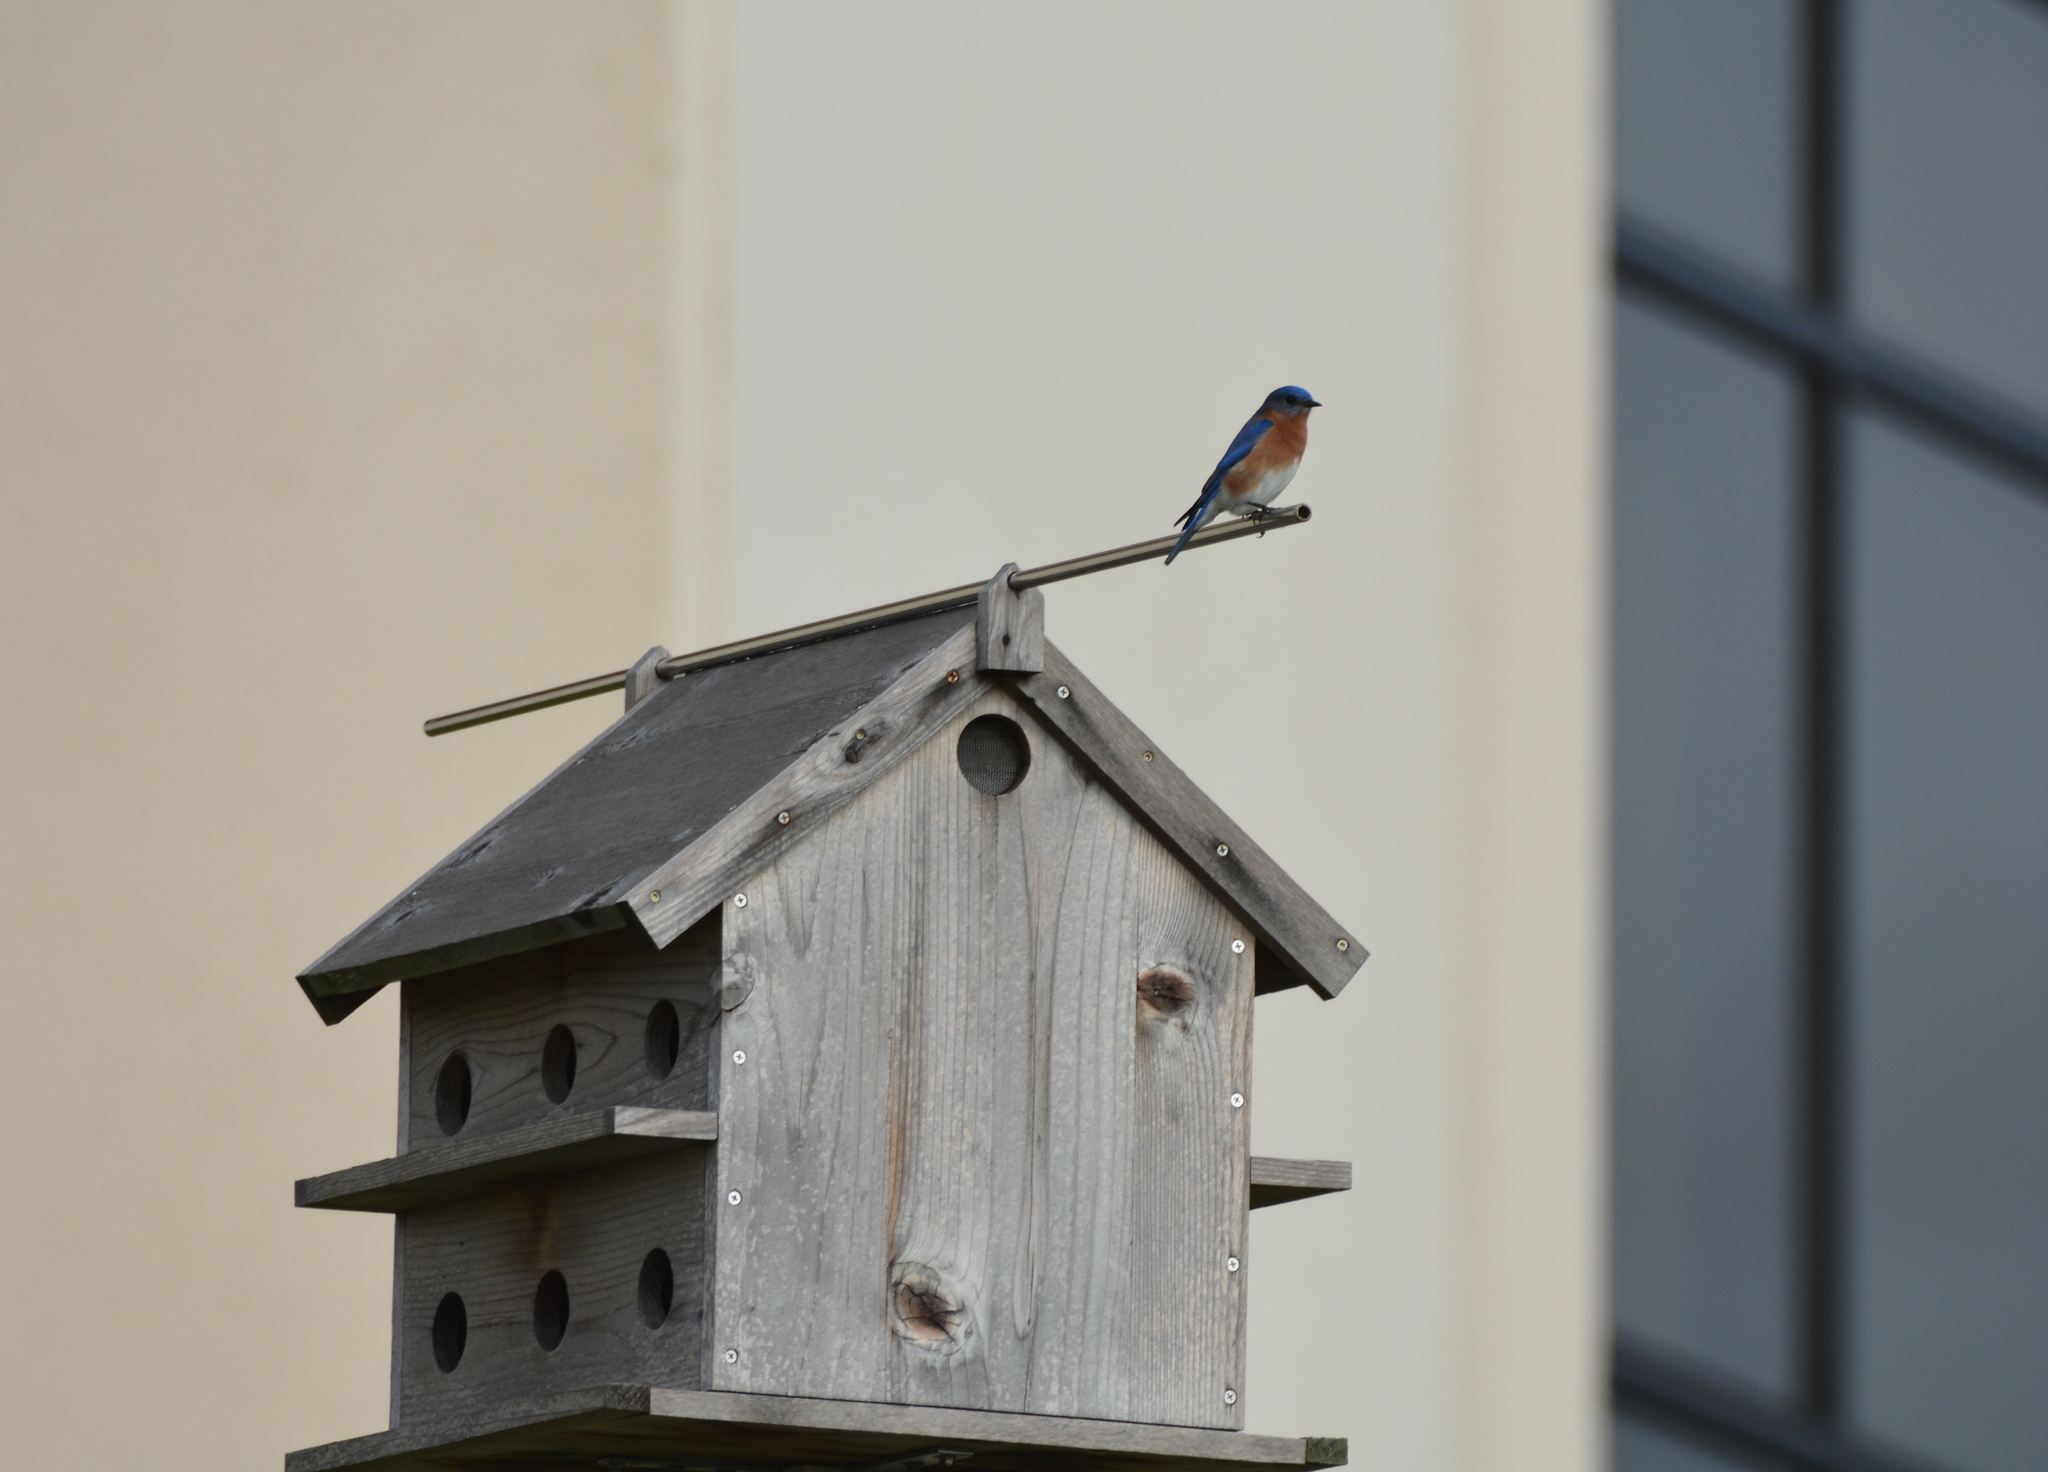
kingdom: Animalia
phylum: Chordata
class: Aves
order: Passeriformes
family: Turdidae
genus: Sialia
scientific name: Sialia sialis
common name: Eastern bluebird
